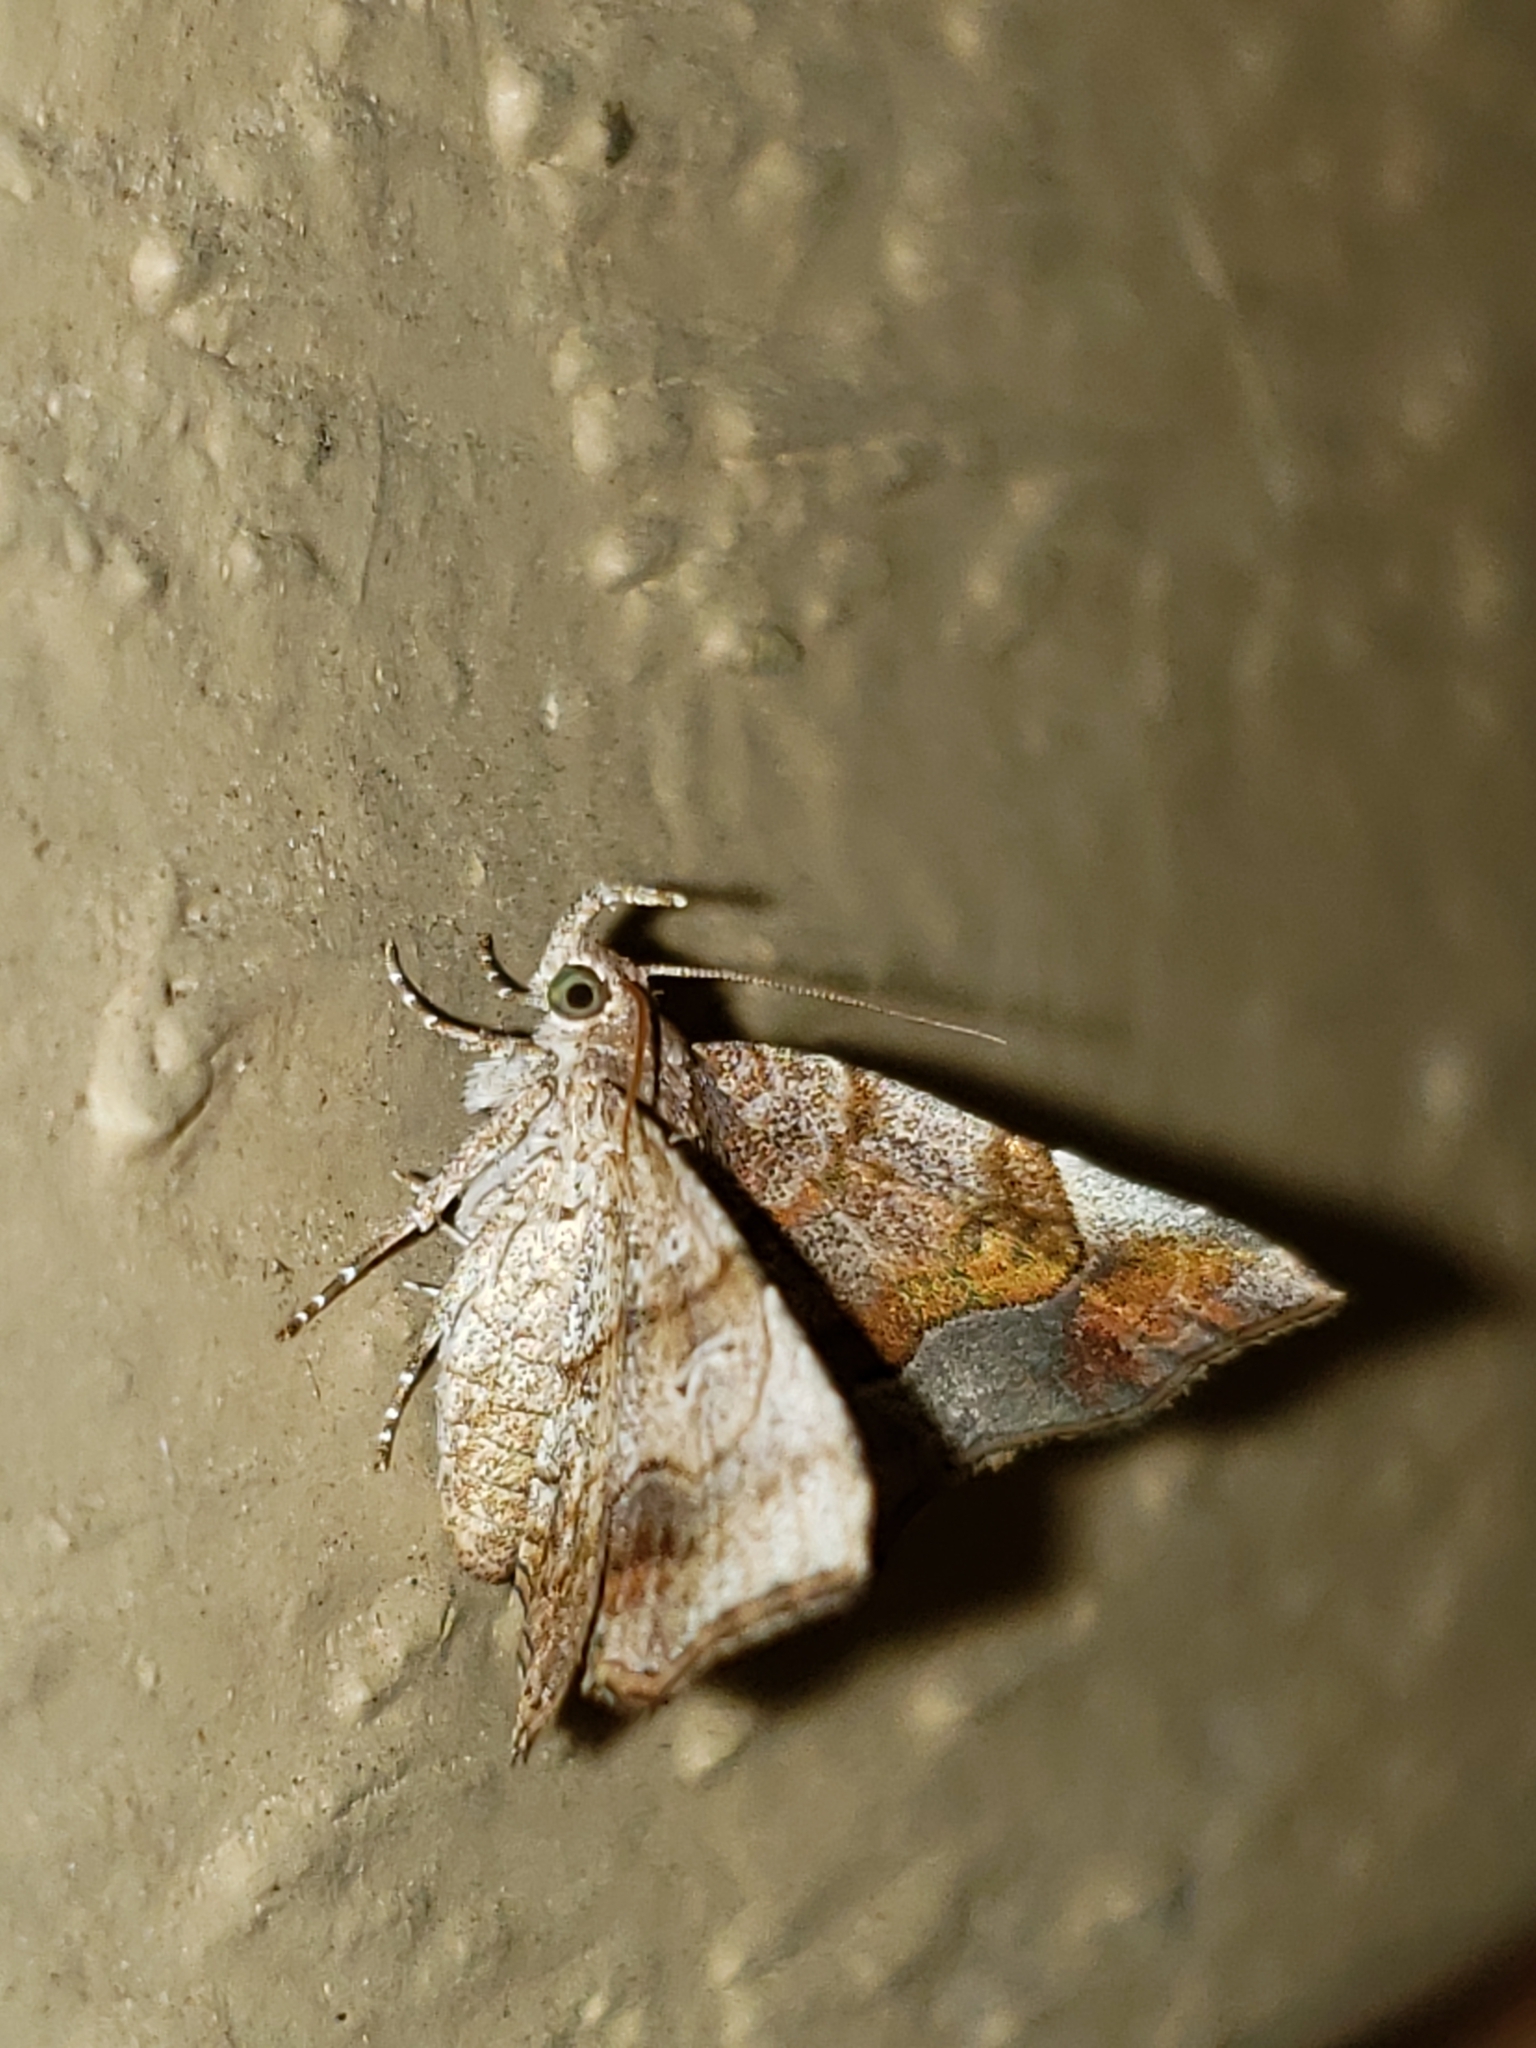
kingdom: Animalia
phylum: Arthropoda
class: Insecta
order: Lepidoptera
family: Erebidae
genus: Pangrapta
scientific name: Pangrapta decoralis
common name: Decorated owlet
